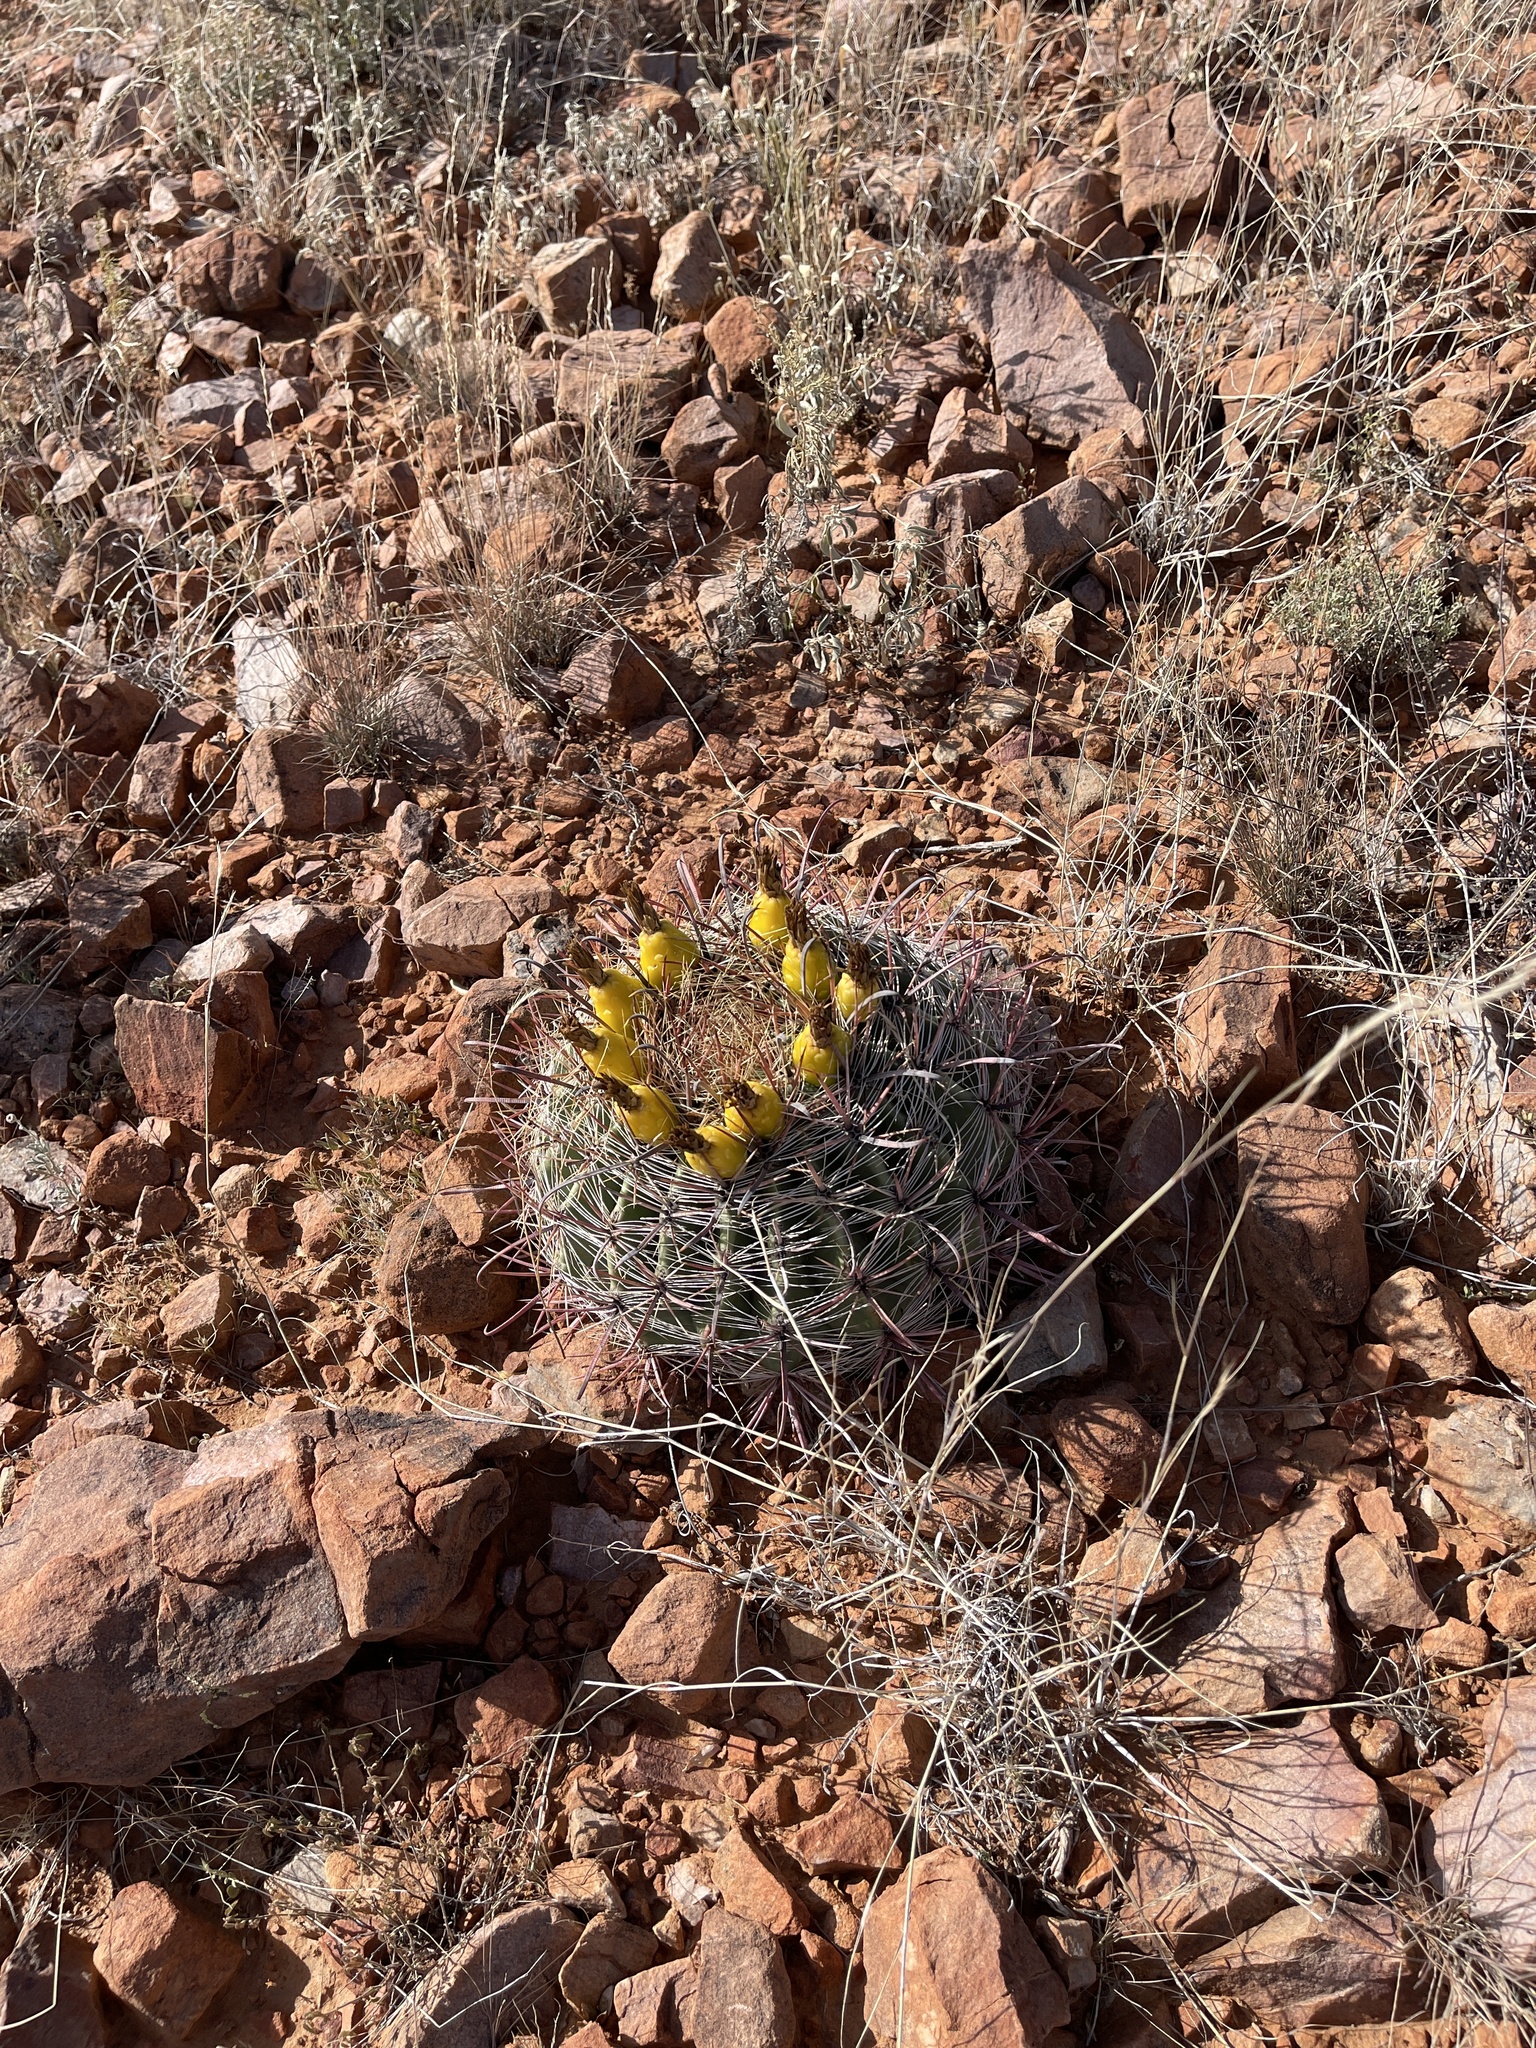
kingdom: Plantae
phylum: Tracheophyta
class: Magnoliopsida
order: Caryophyllales
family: Cactaceae
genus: Ferocactus
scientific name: Ferocactus wislizeni
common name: Candy barrel cactus
